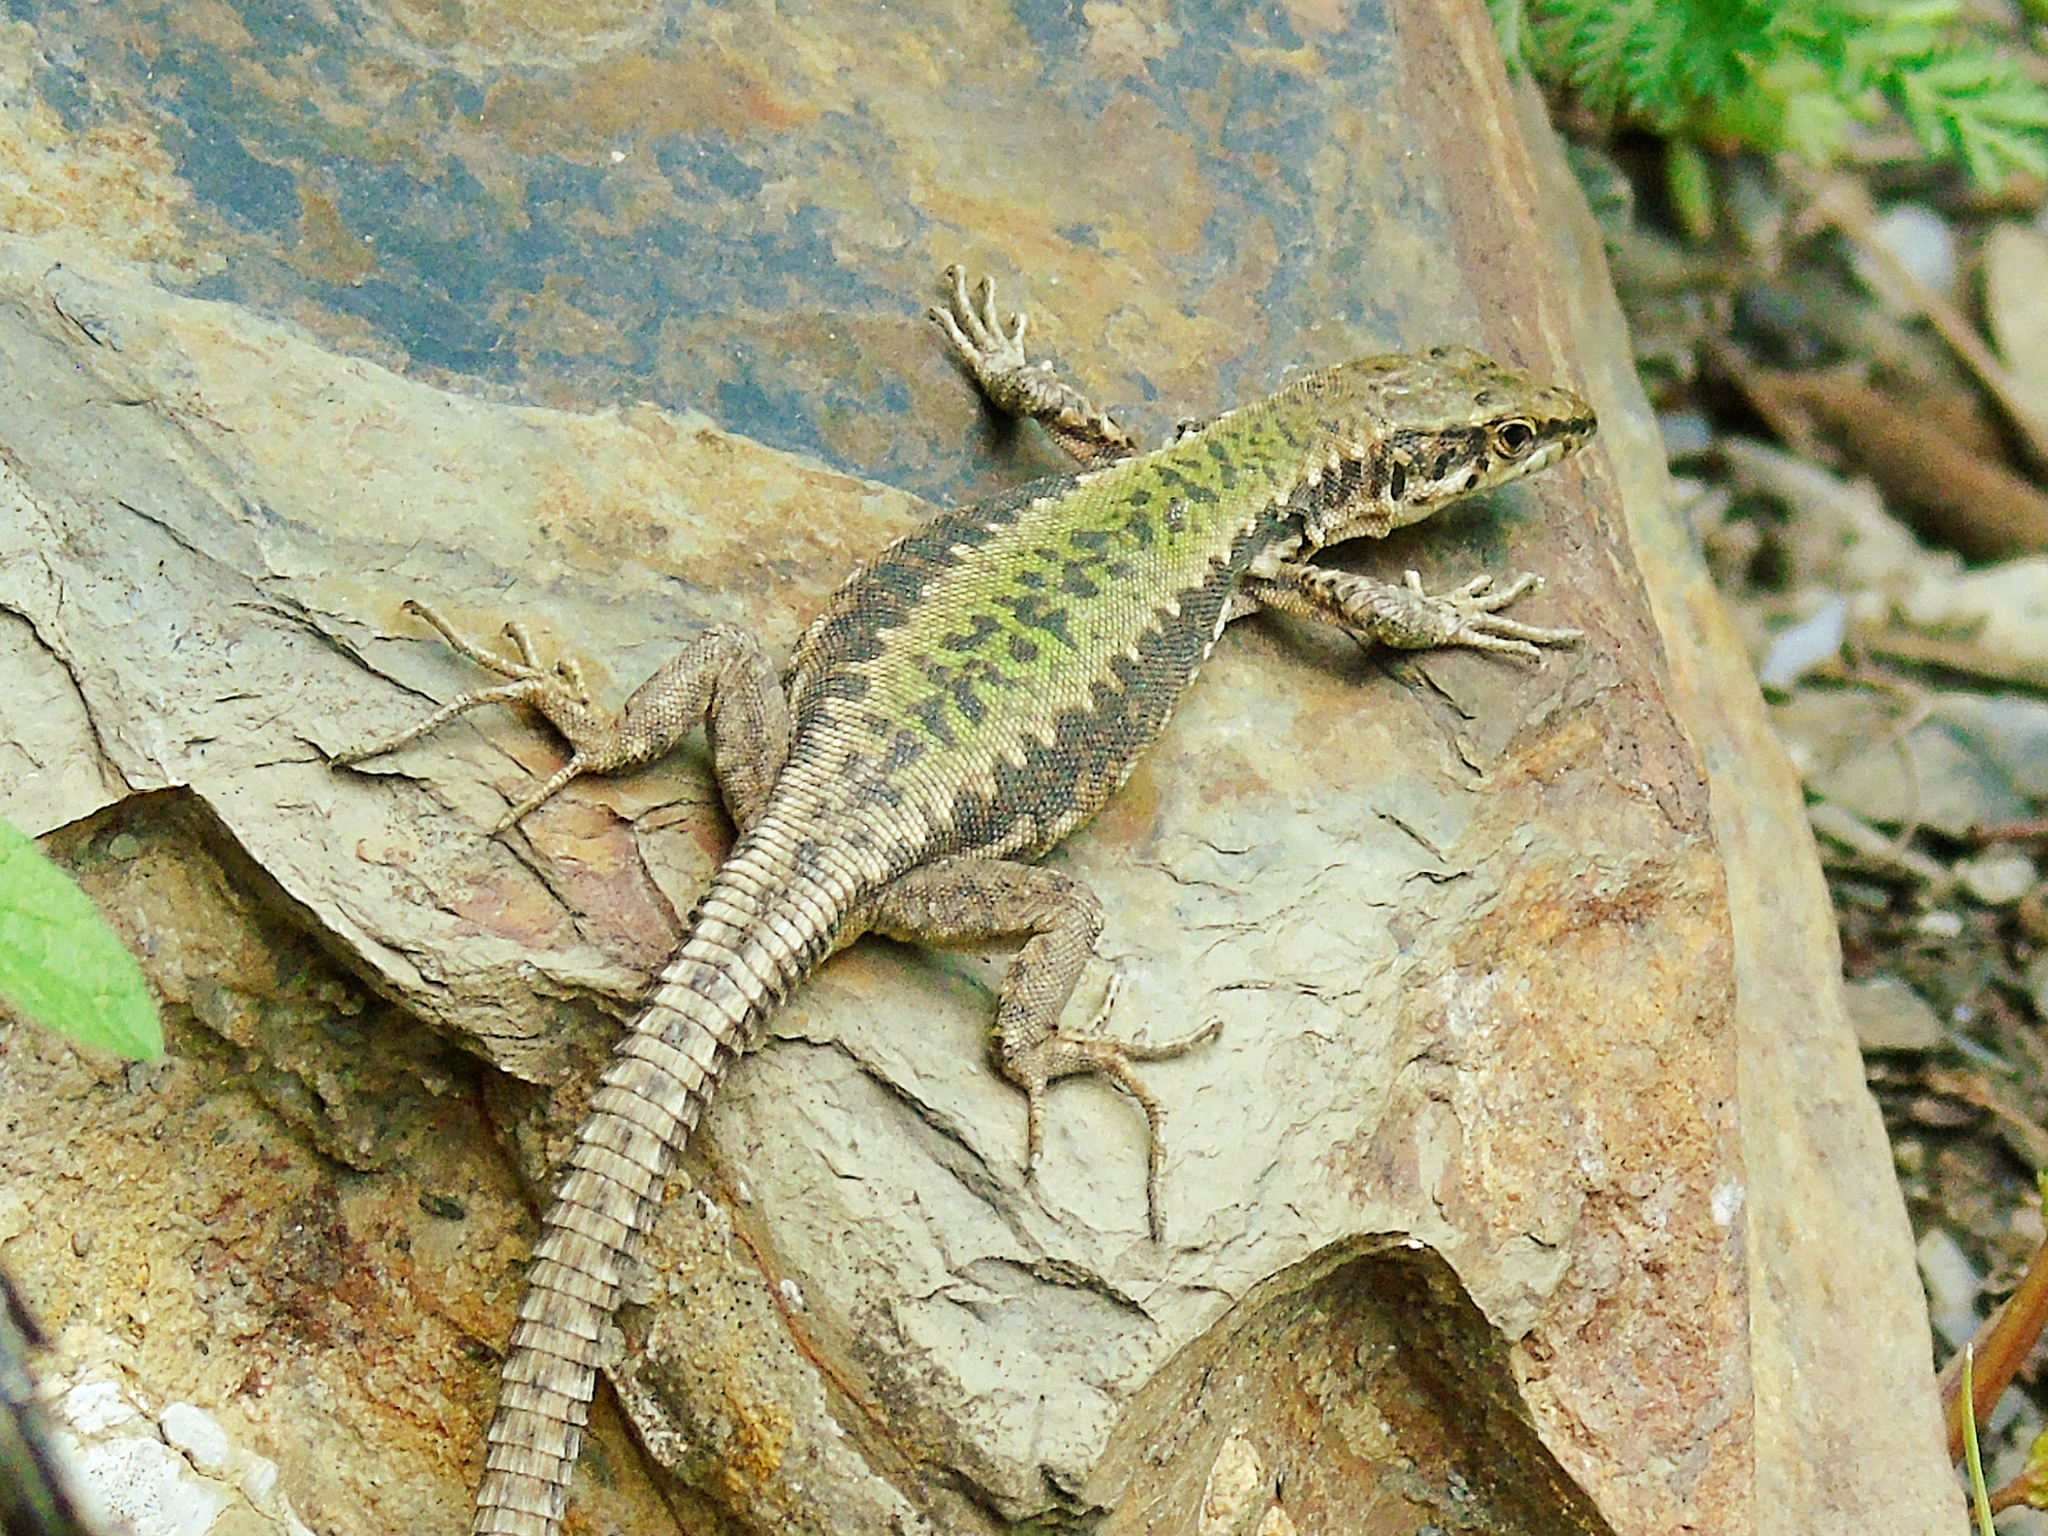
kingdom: Animalia
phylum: Chordata
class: Squamata
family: Lacertidae
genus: Darevskia
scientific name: Darevskia brauneri
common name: Brauner's rock lizard
